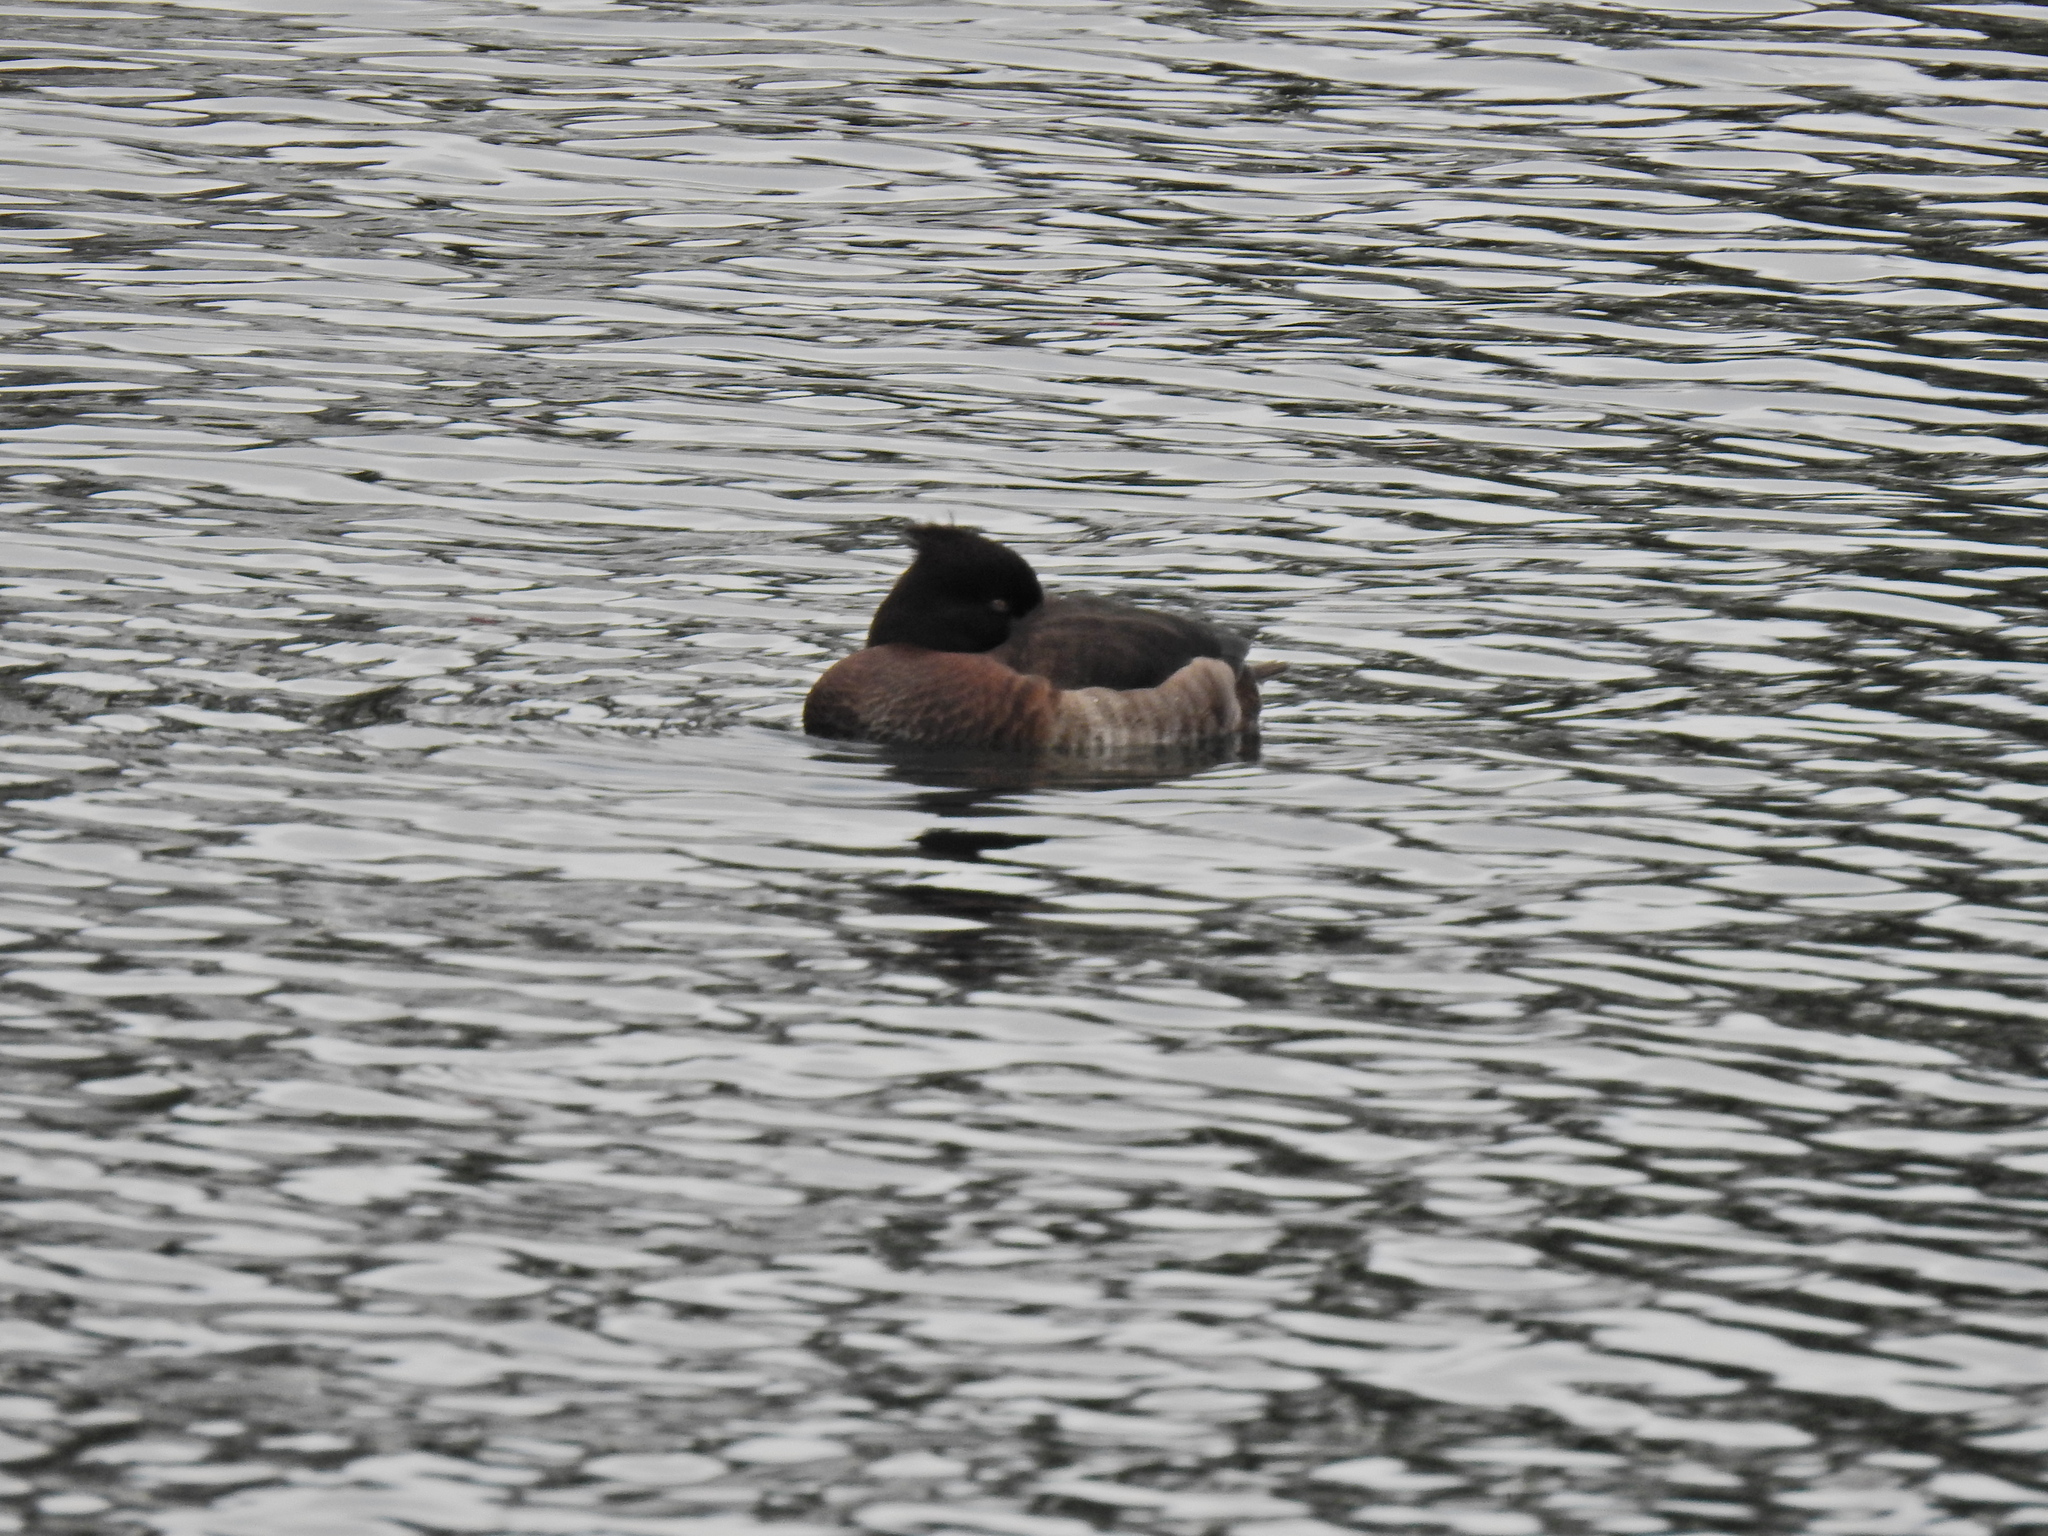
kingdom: Animalia
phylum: Chordata
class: Aves
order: Anseriformes
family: Anatidae
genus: Aythya
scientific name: Aythya fuligula
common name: Tufted duck
